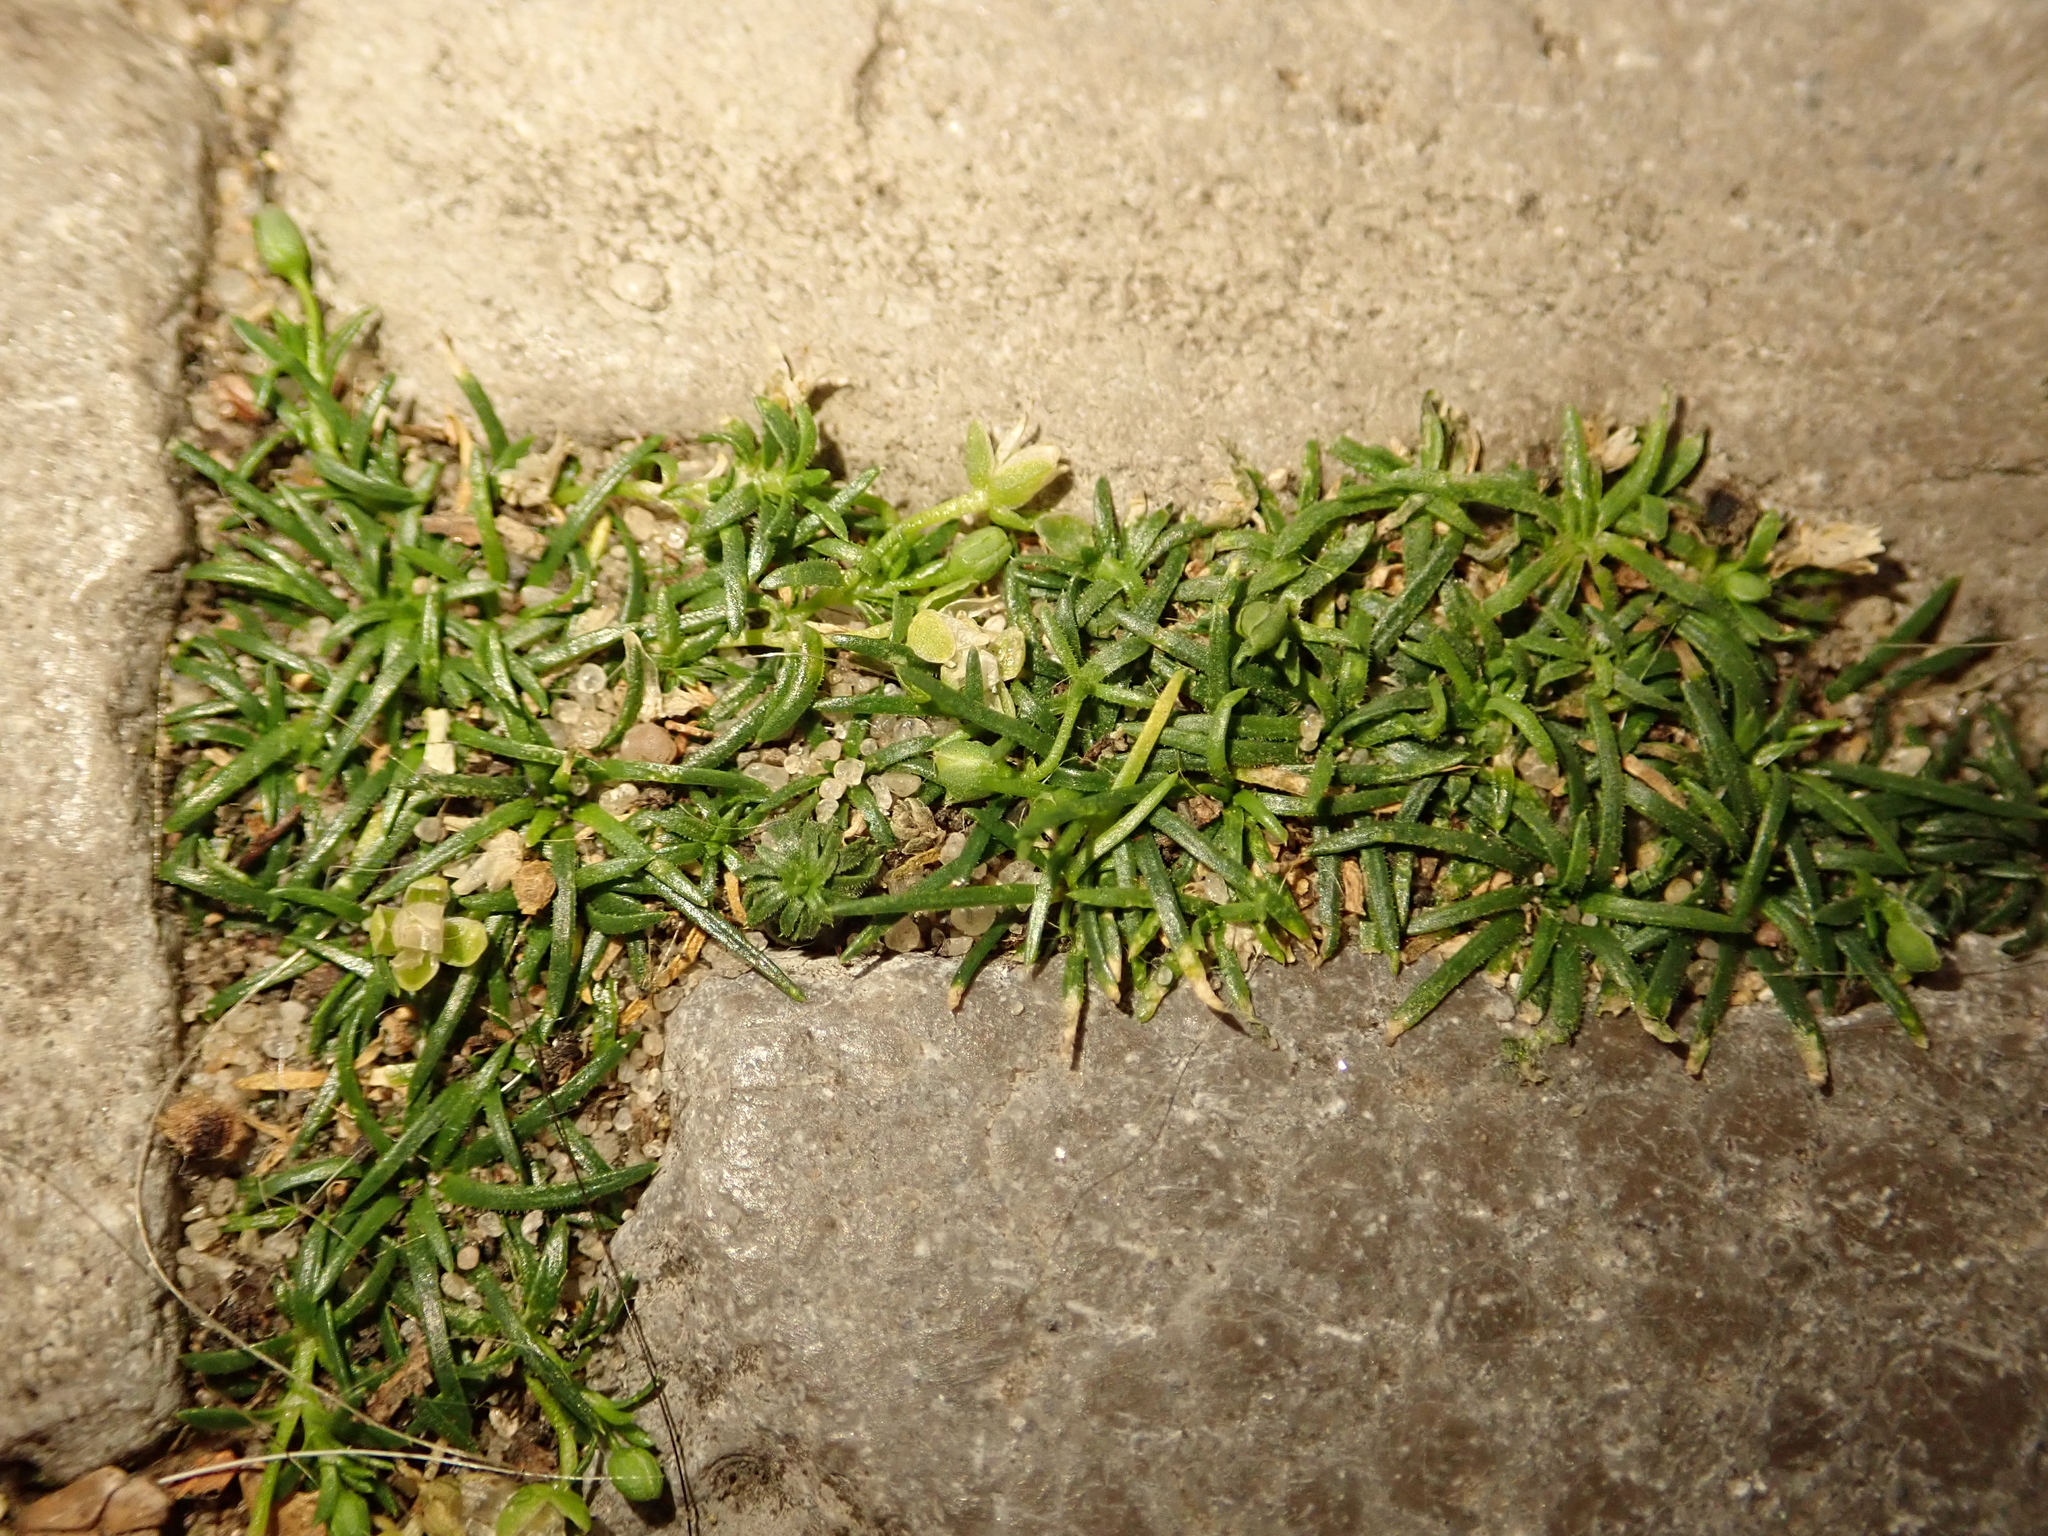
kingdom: Plantae
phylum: Tracheophyta
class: Magnoliopsida
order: Caryophyllales
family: Caryophyllaceae
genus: Sagina
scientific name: Sagina procumbens
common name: Procumbent pearlwort
